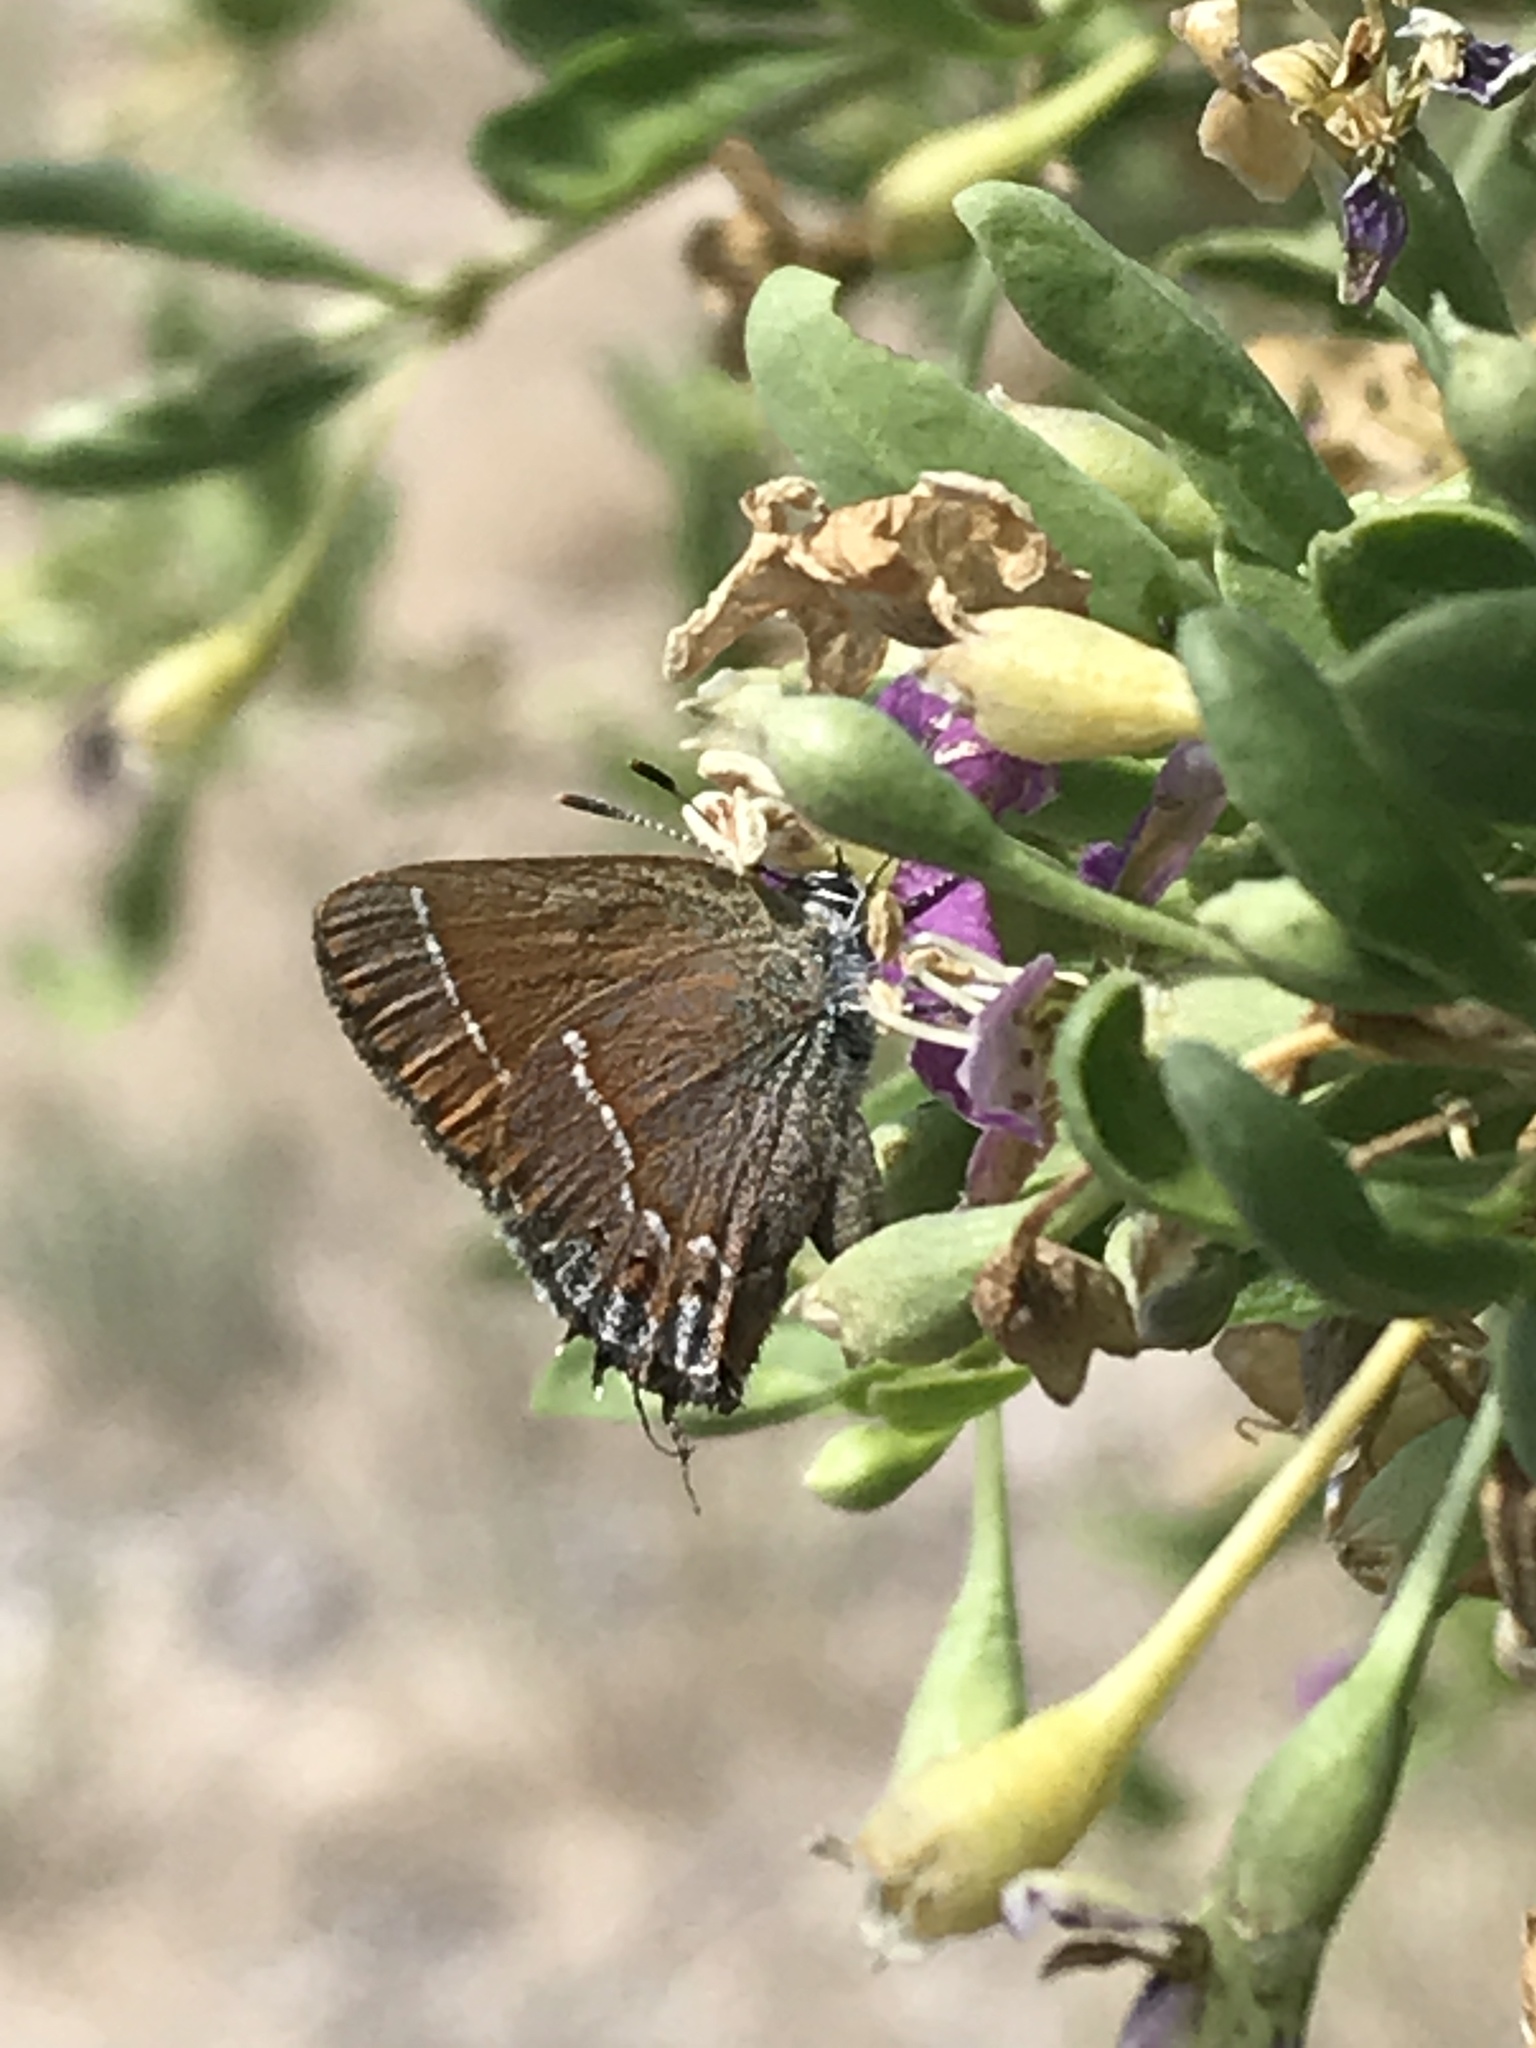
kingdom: Animalia
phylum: Arthropoda
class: Insecta
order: Lepidoptera
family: Lycaenidae
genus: Mitoura
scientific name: Mitoura gryneus
